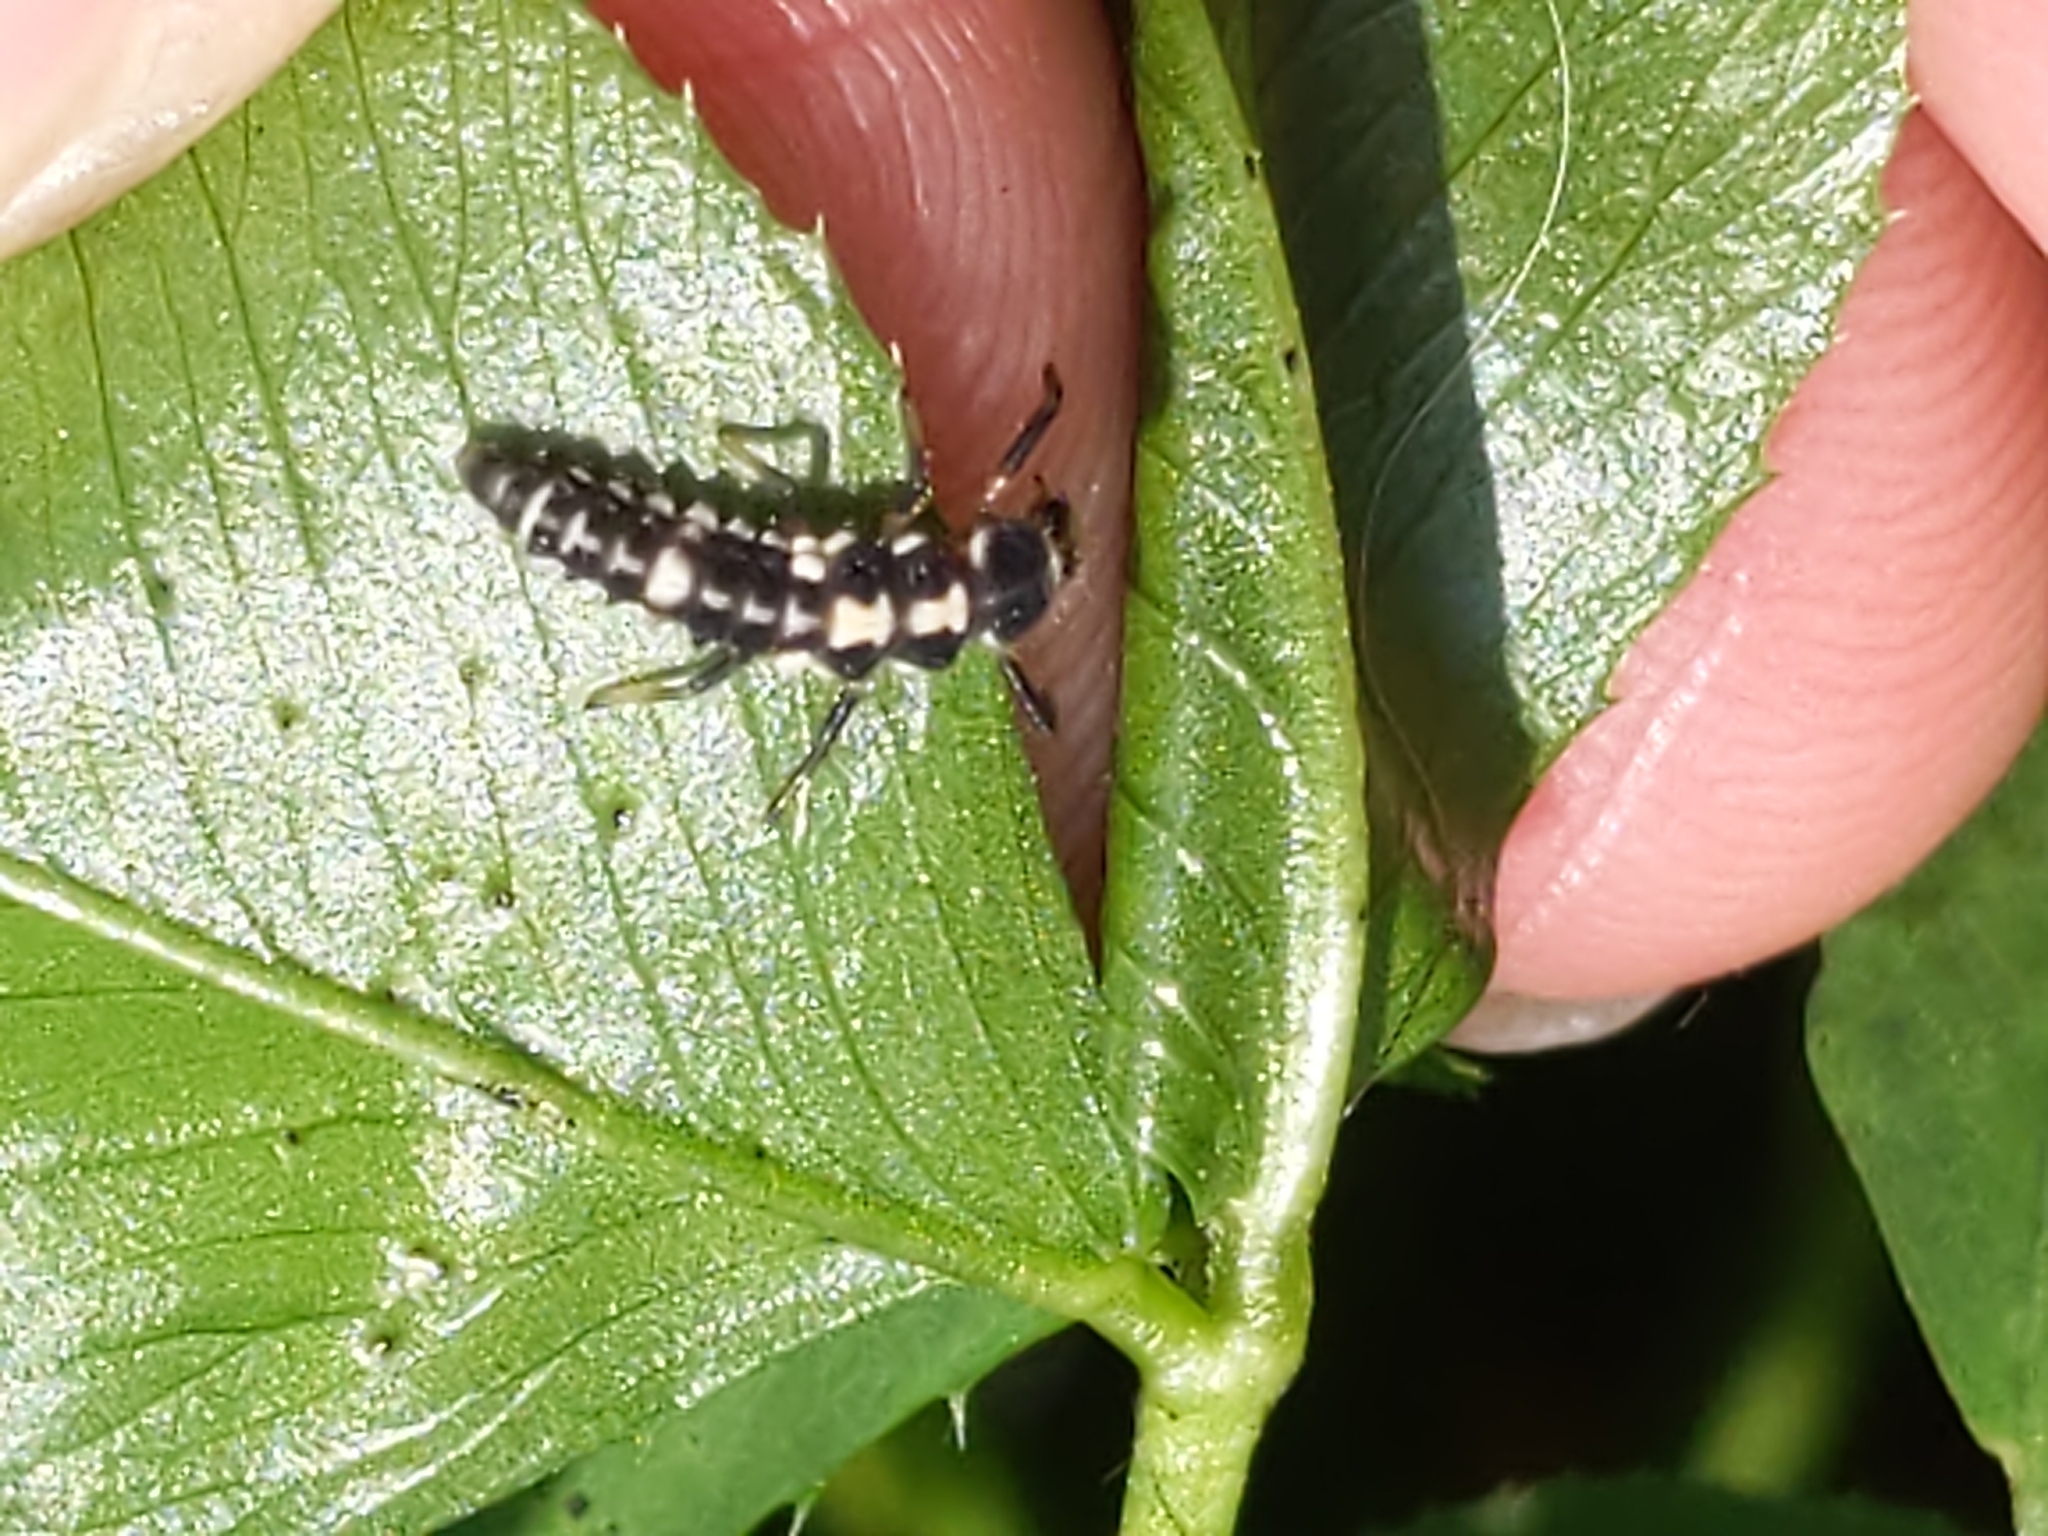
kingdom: Animalia
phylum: Arthropoda
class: Insecta
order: Coleoptera
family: Coccinellidae
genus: Propylaea
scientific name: Propylaea quatuordecimpunctata
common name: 14-spotted ladybird beetle
